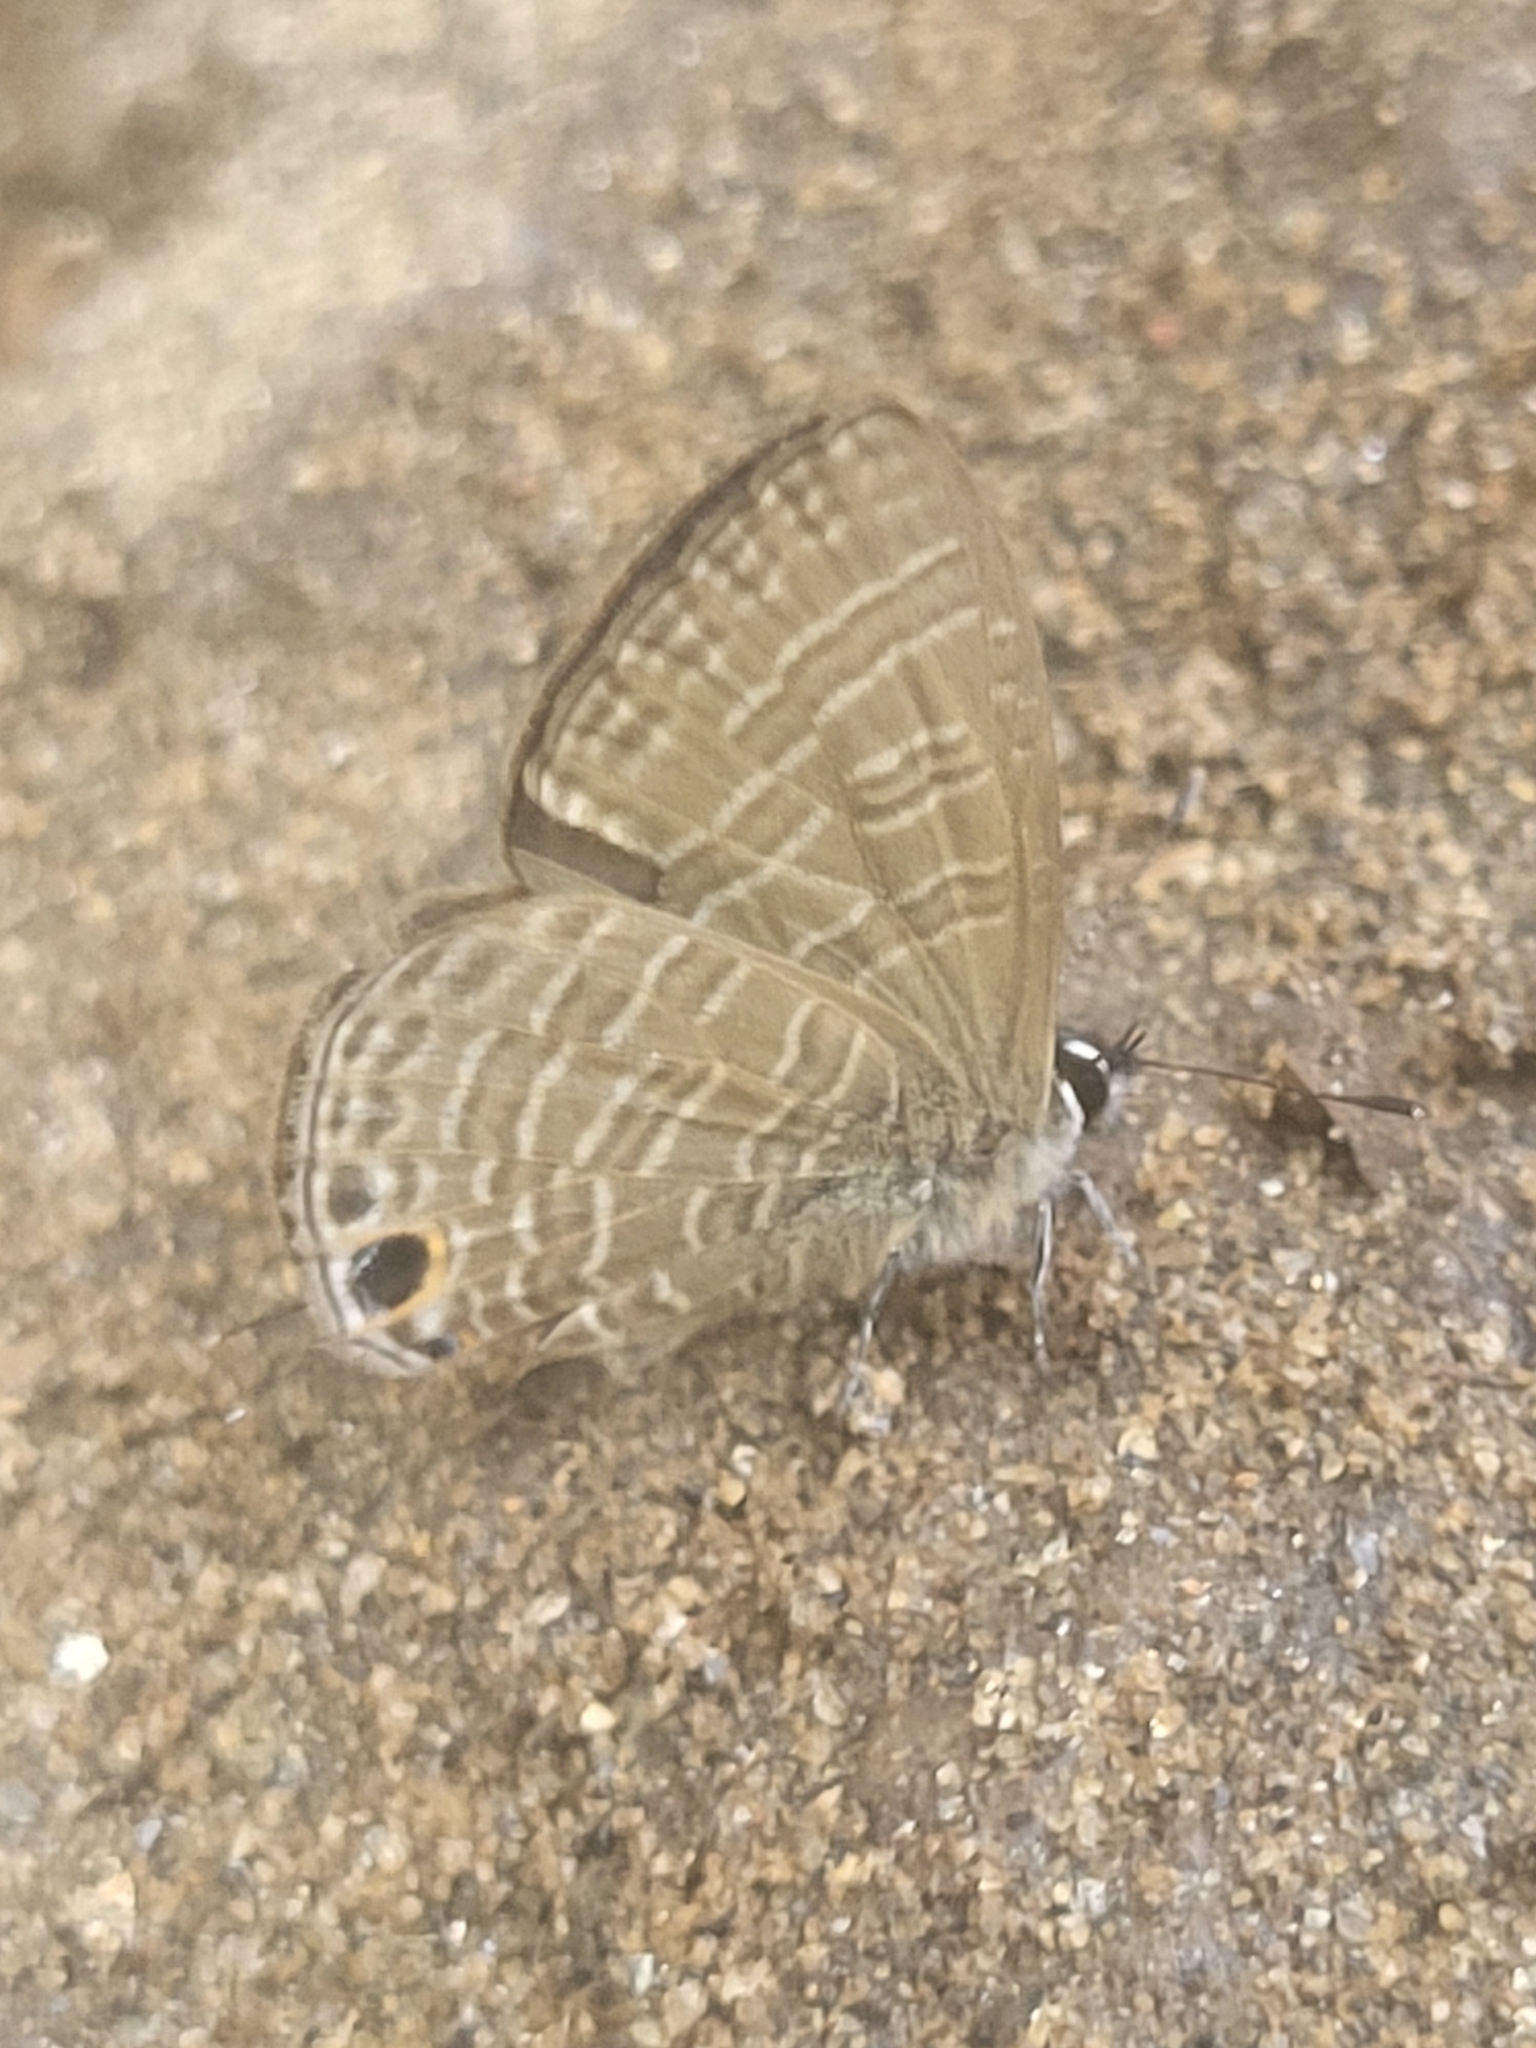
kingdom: Animalia
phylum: Arthropoda
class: Insecta
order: Lepidoptera
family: Lycaenidae
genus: Nacaduba
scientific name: Nacaduba berenice
